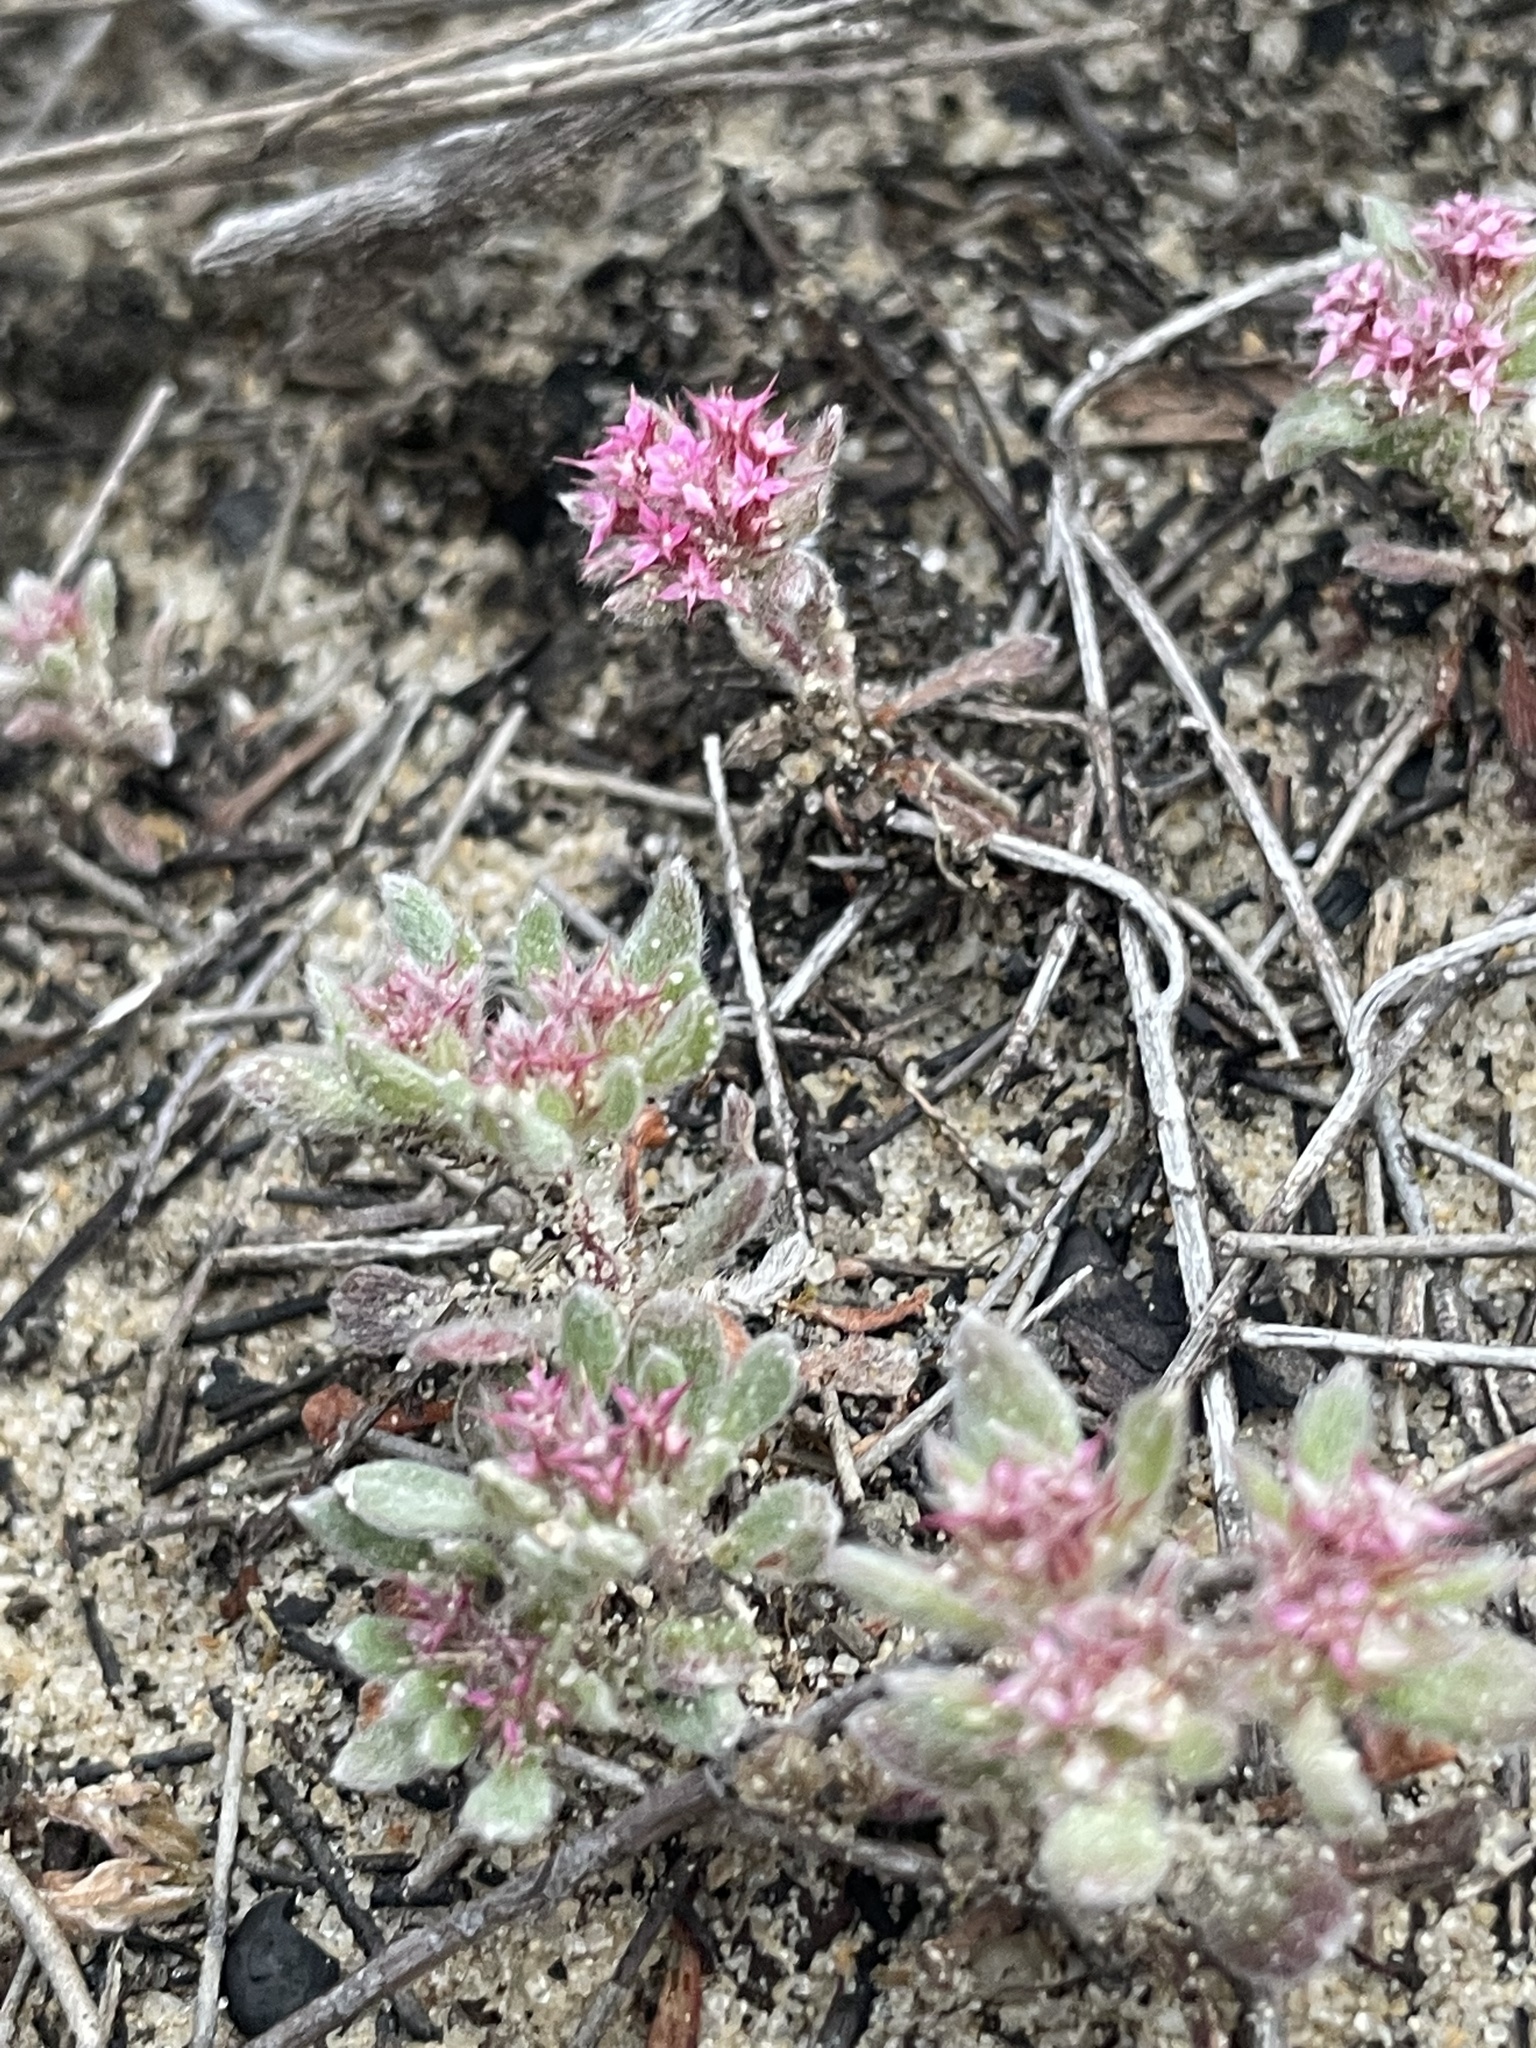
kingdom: Plantae
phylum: Tracheophyta
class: Magnoliopsida
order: Caryophyllales
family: Polygonaceae
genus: Chorizanthe
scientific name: Chorizanthe pungens
